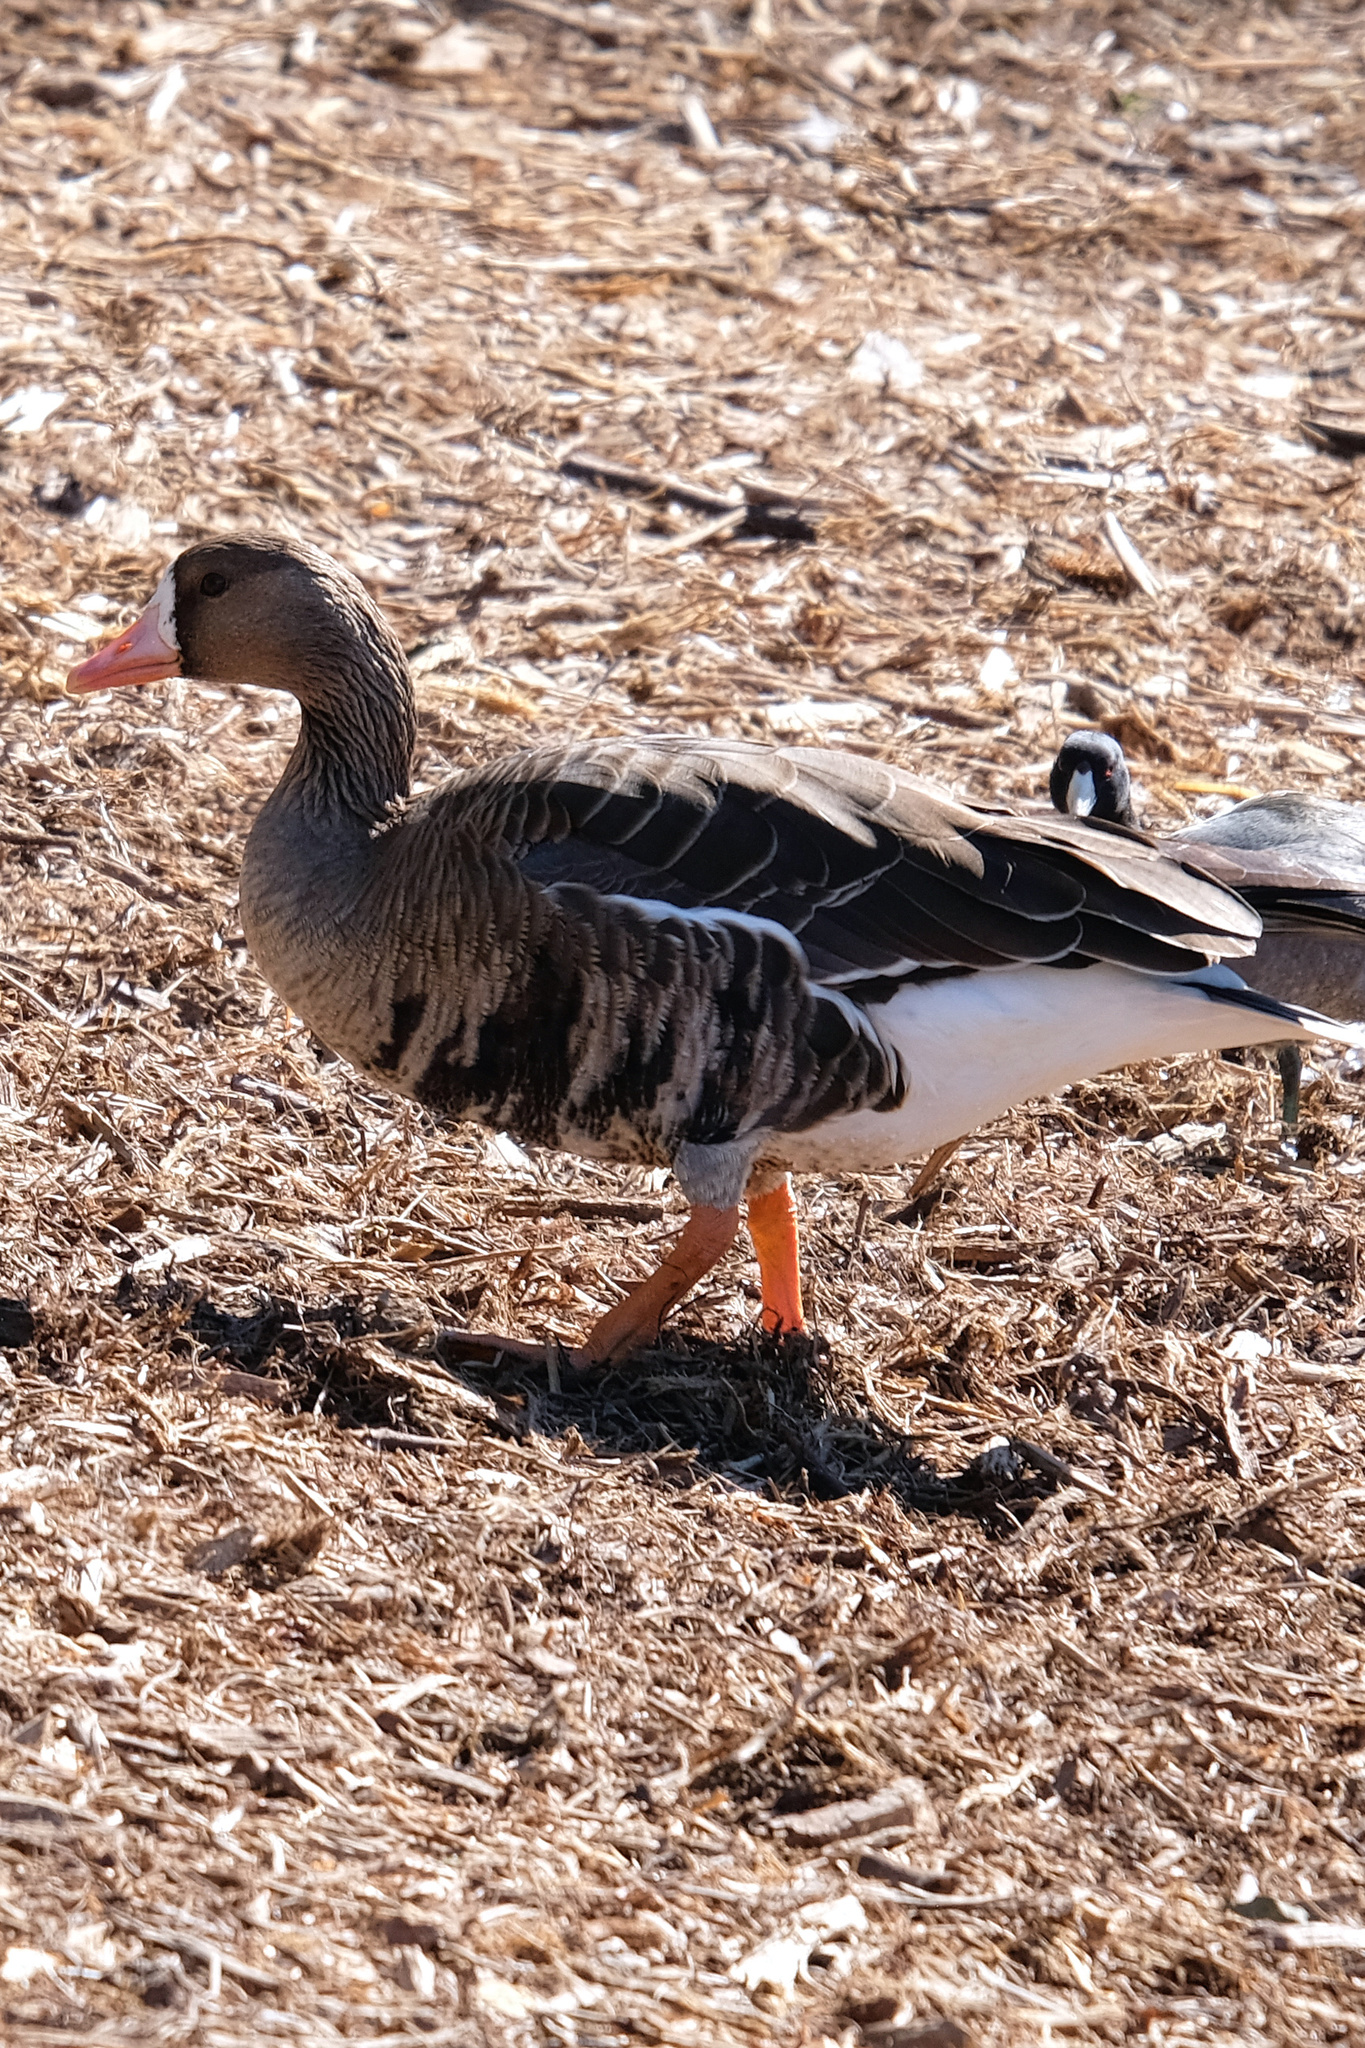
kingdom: Animalia
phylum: Chordata
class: Aves
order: Anseriformes
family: Anatidae
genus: Anser
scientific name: Anser albifrons
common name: Greater white-fronted goose
